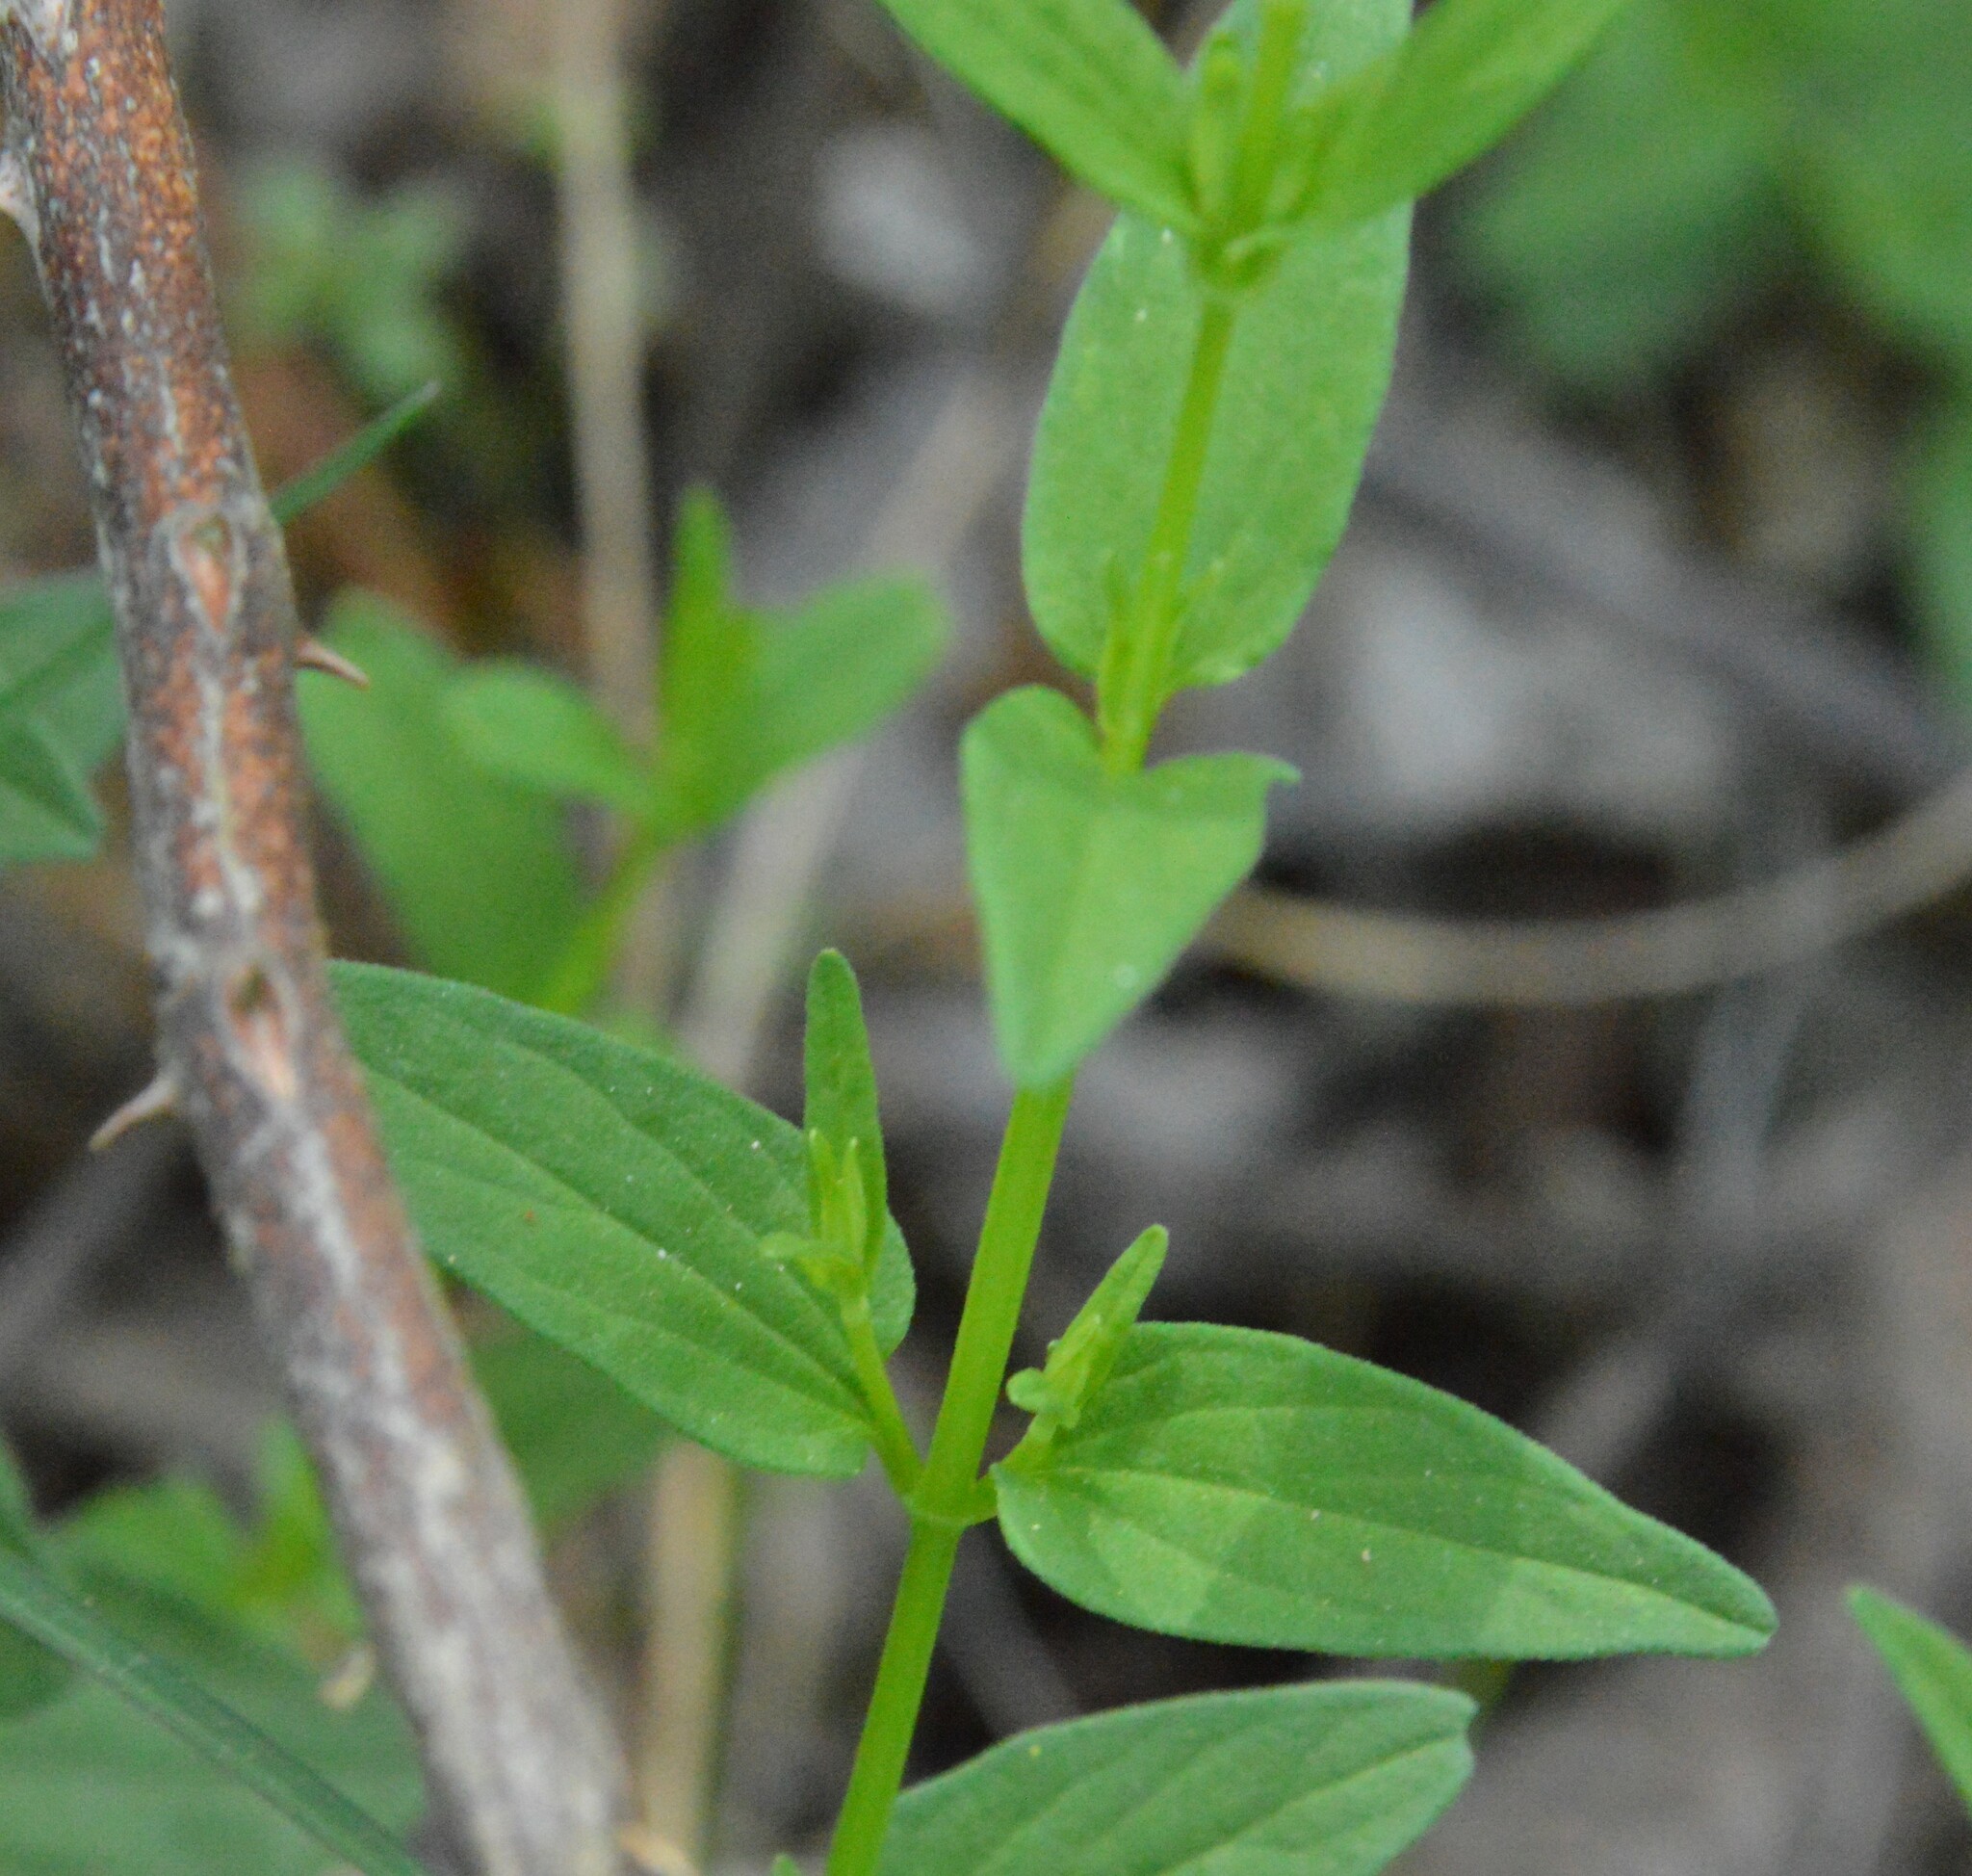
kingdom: Plantae
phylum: Tracheophyta
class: Magnoliopsida
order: Lamiales
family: Lamiaceae
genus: Scutellaria
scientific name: Scutellaria racemosa
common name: South american skullcap
